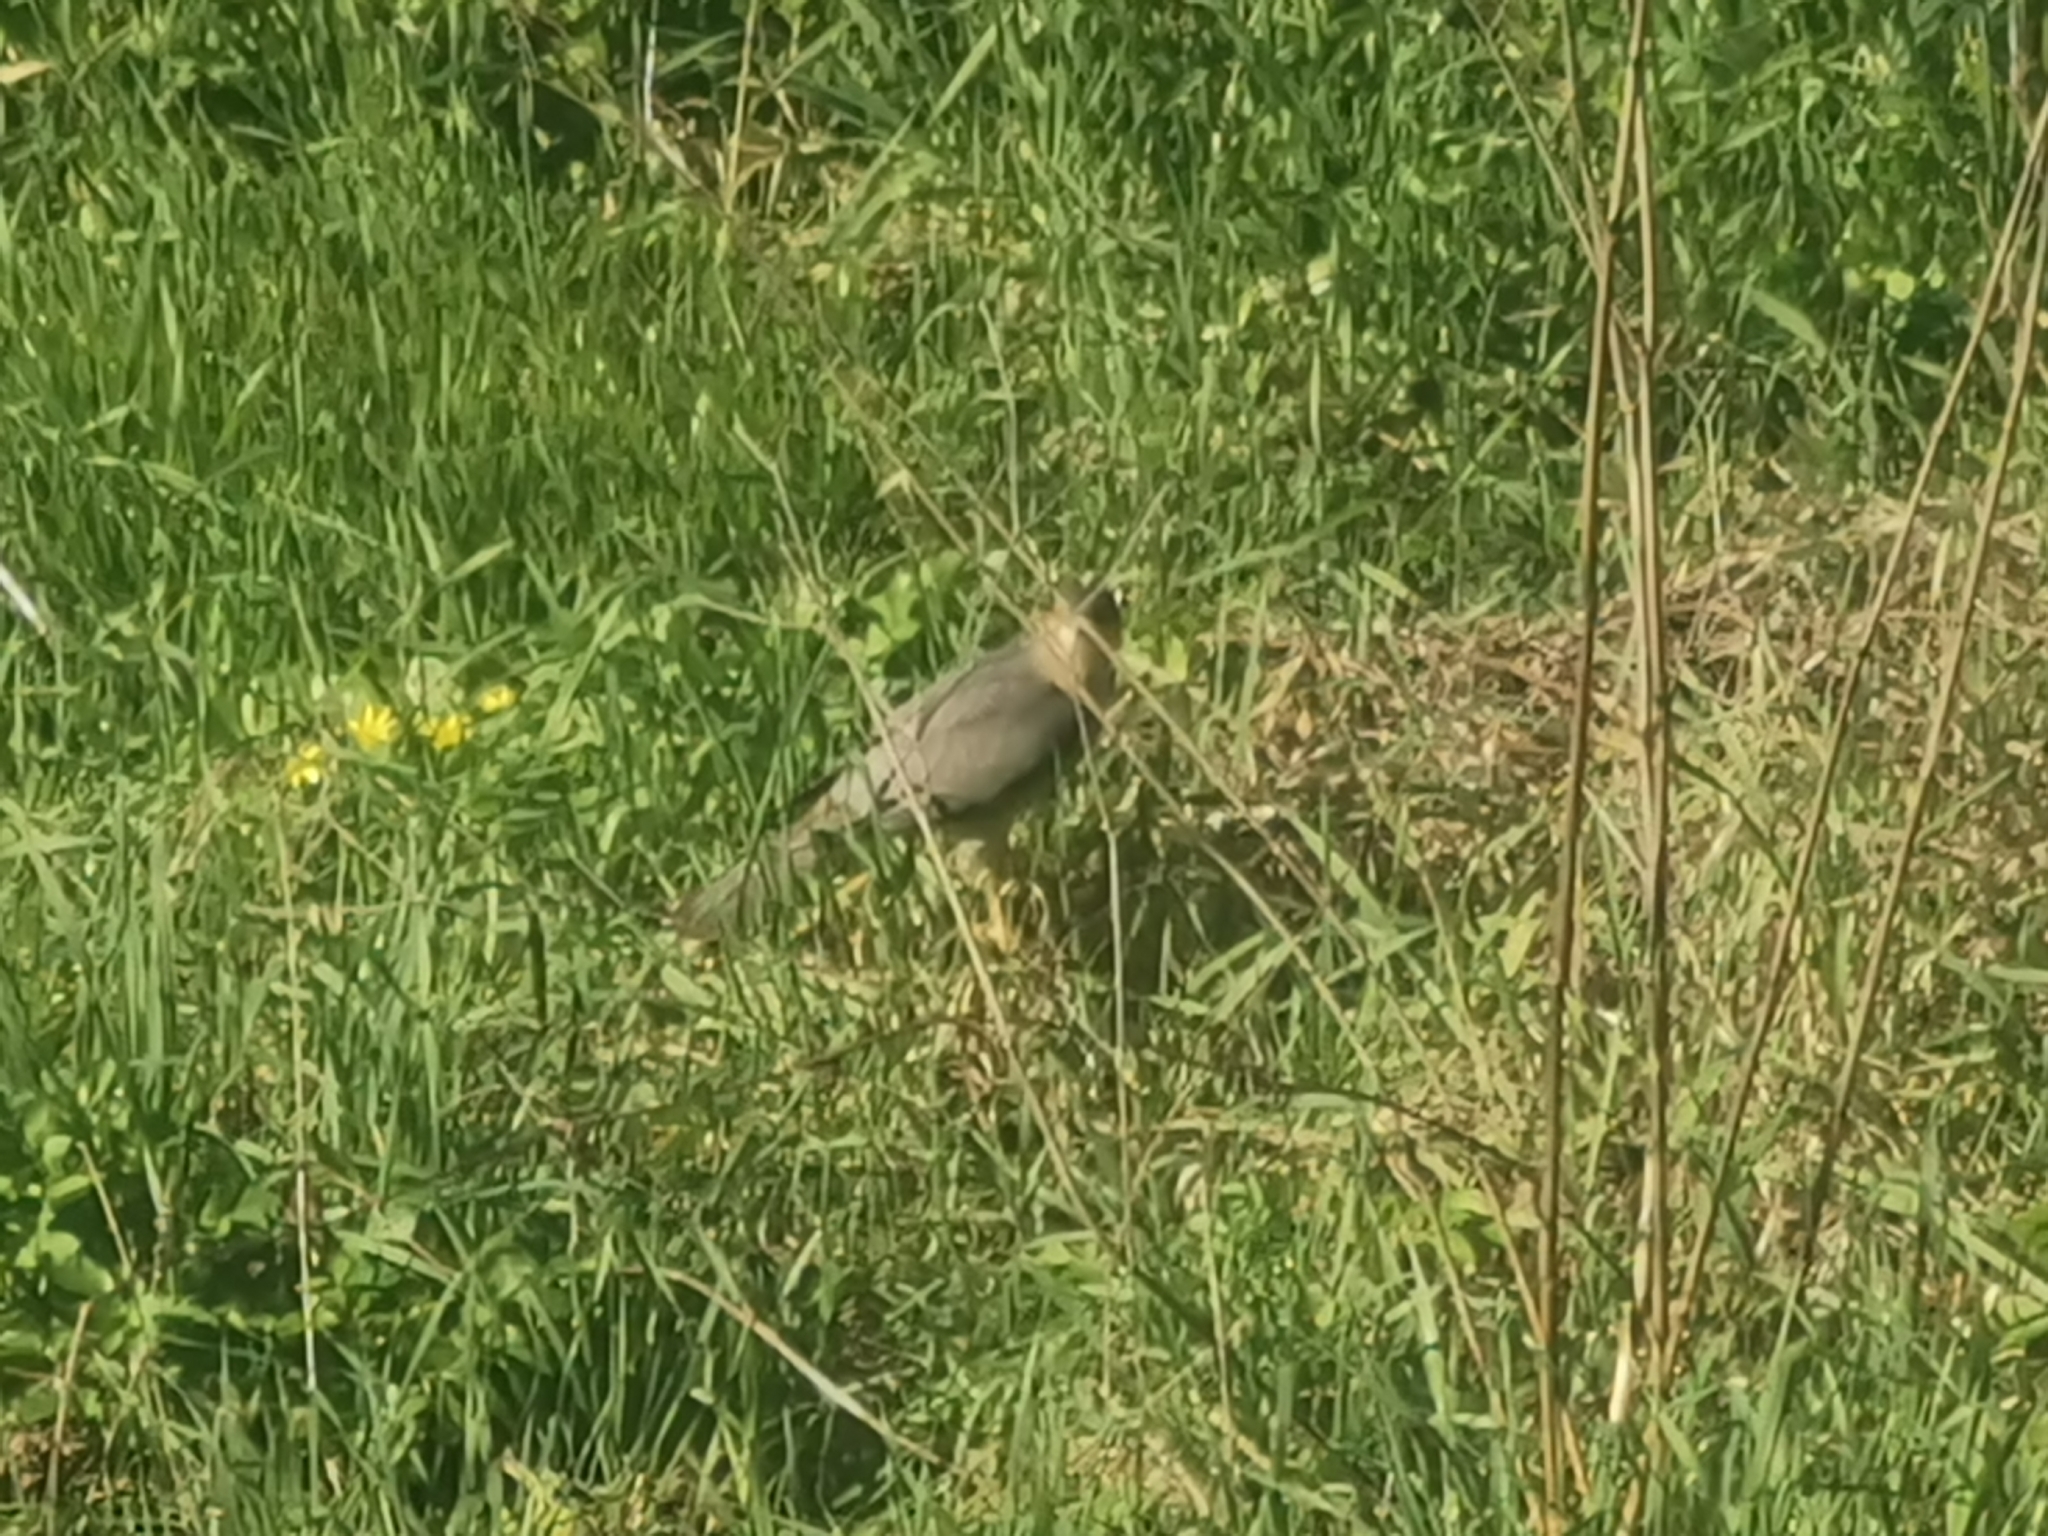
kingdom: Animalia
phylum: Chordata
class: Aves
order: Accipitriformes
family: Accipitridae
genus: Accipiter
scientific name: Accipiter nisus
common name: Eurasian sparrowhawk
